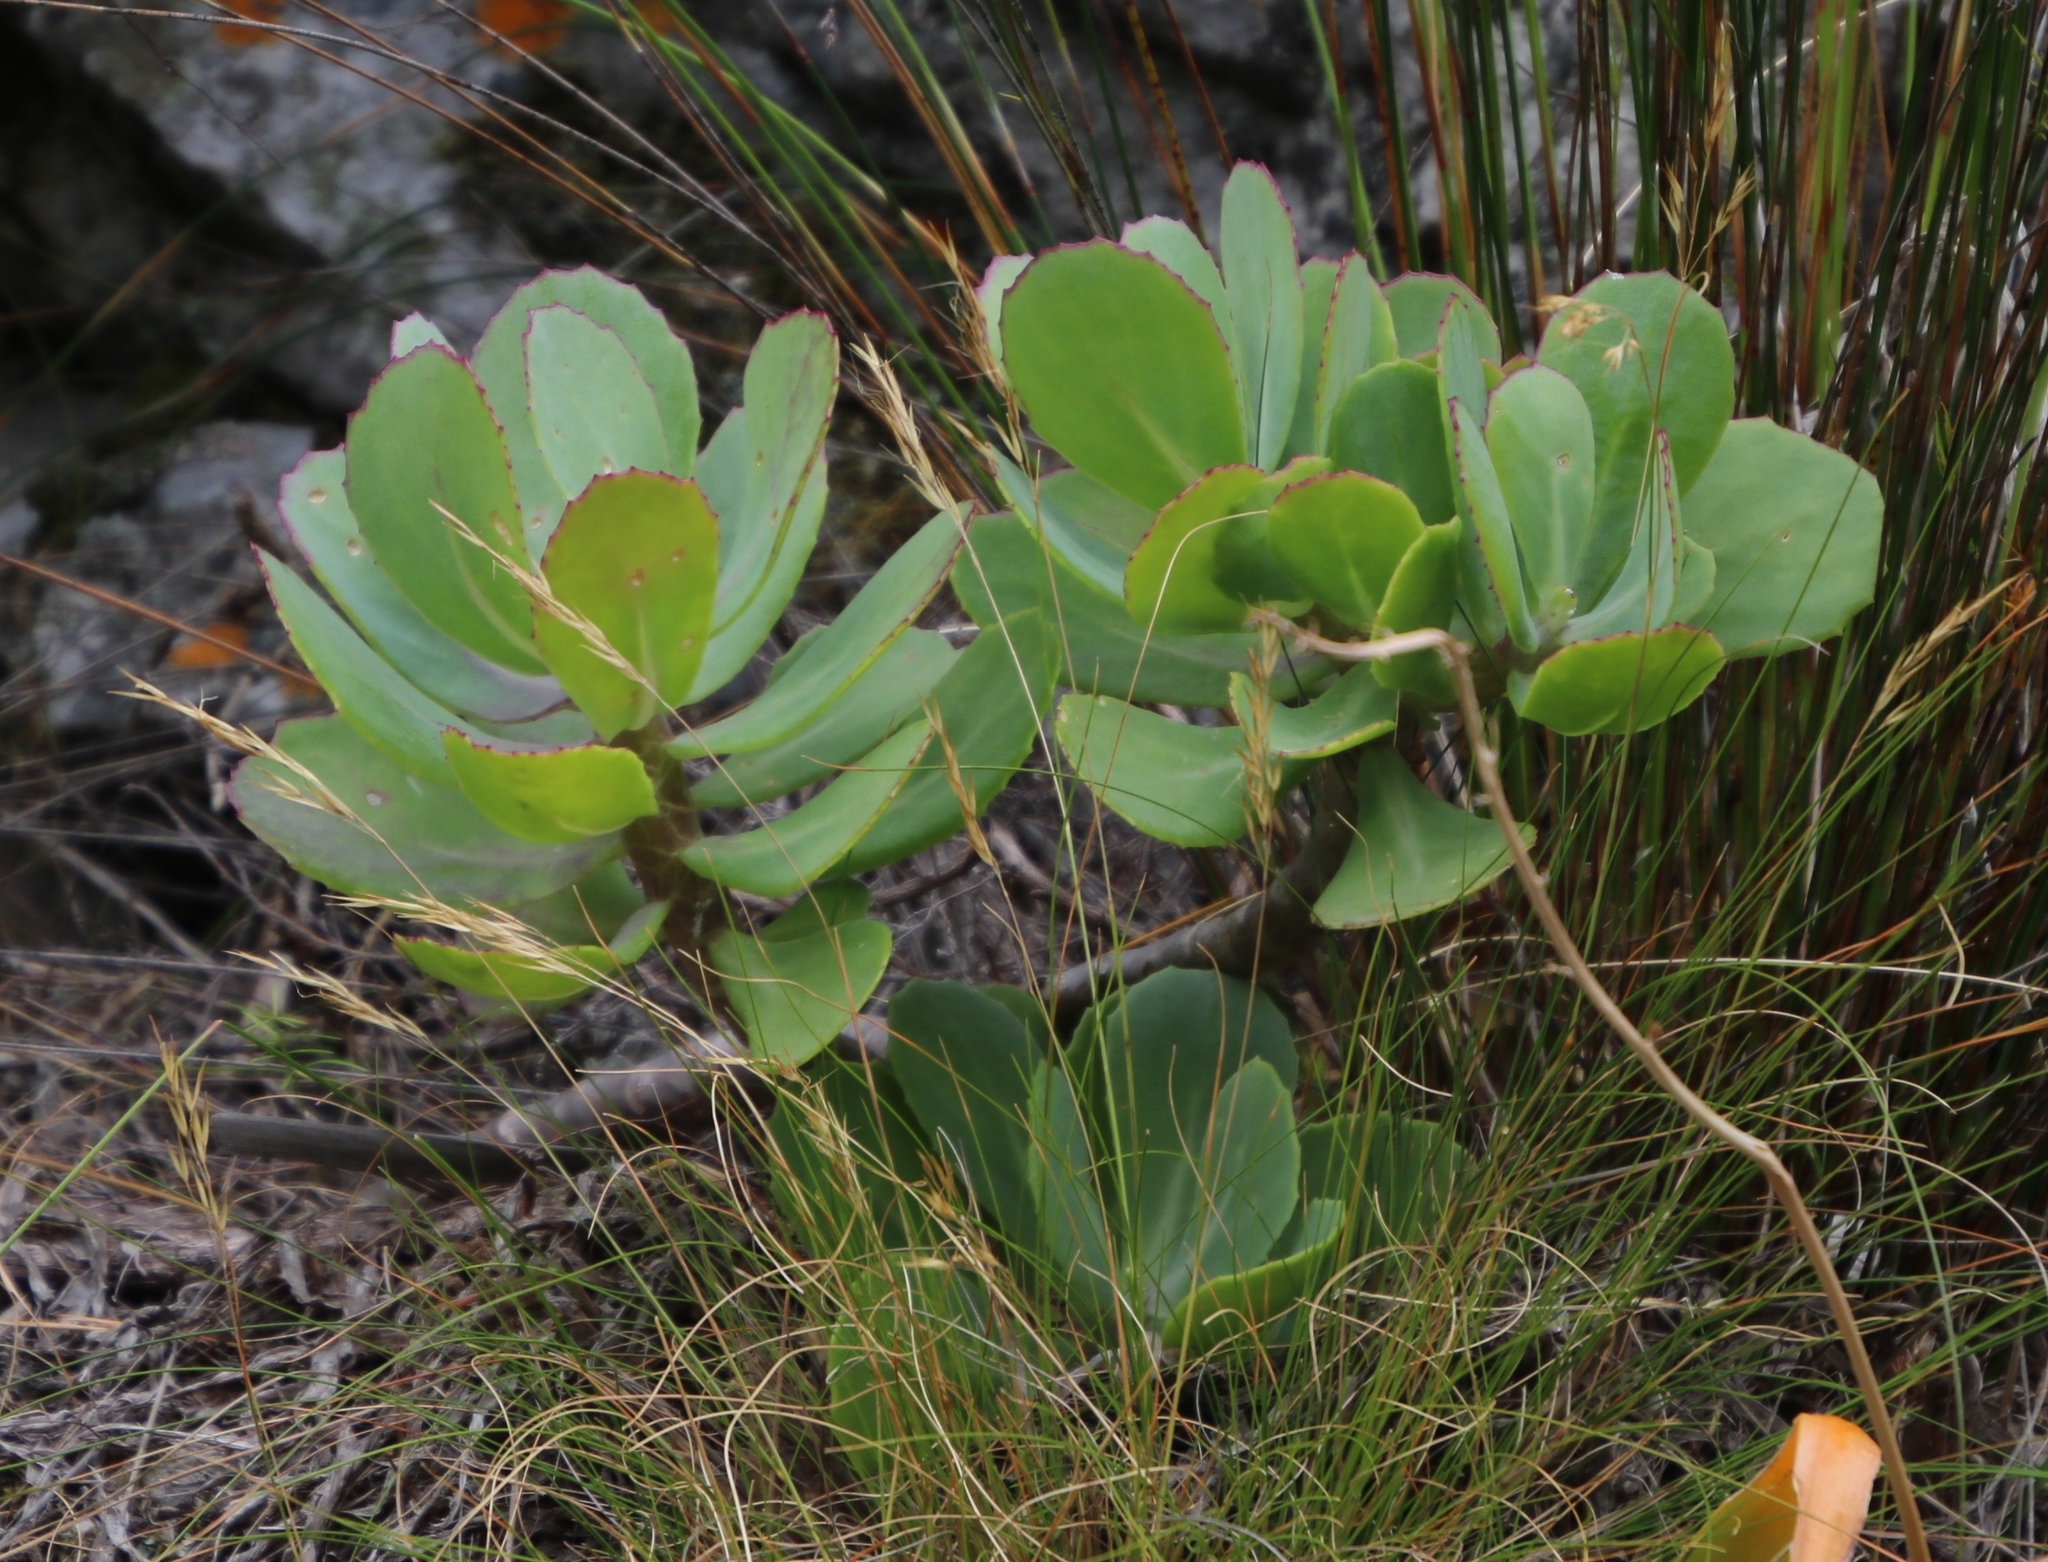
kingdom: Plantae
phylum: Tracheophyta
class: Magnoliopsida
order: Asterales
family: Asteraceae
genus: Othonna
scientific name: Othonna quinquedentata
